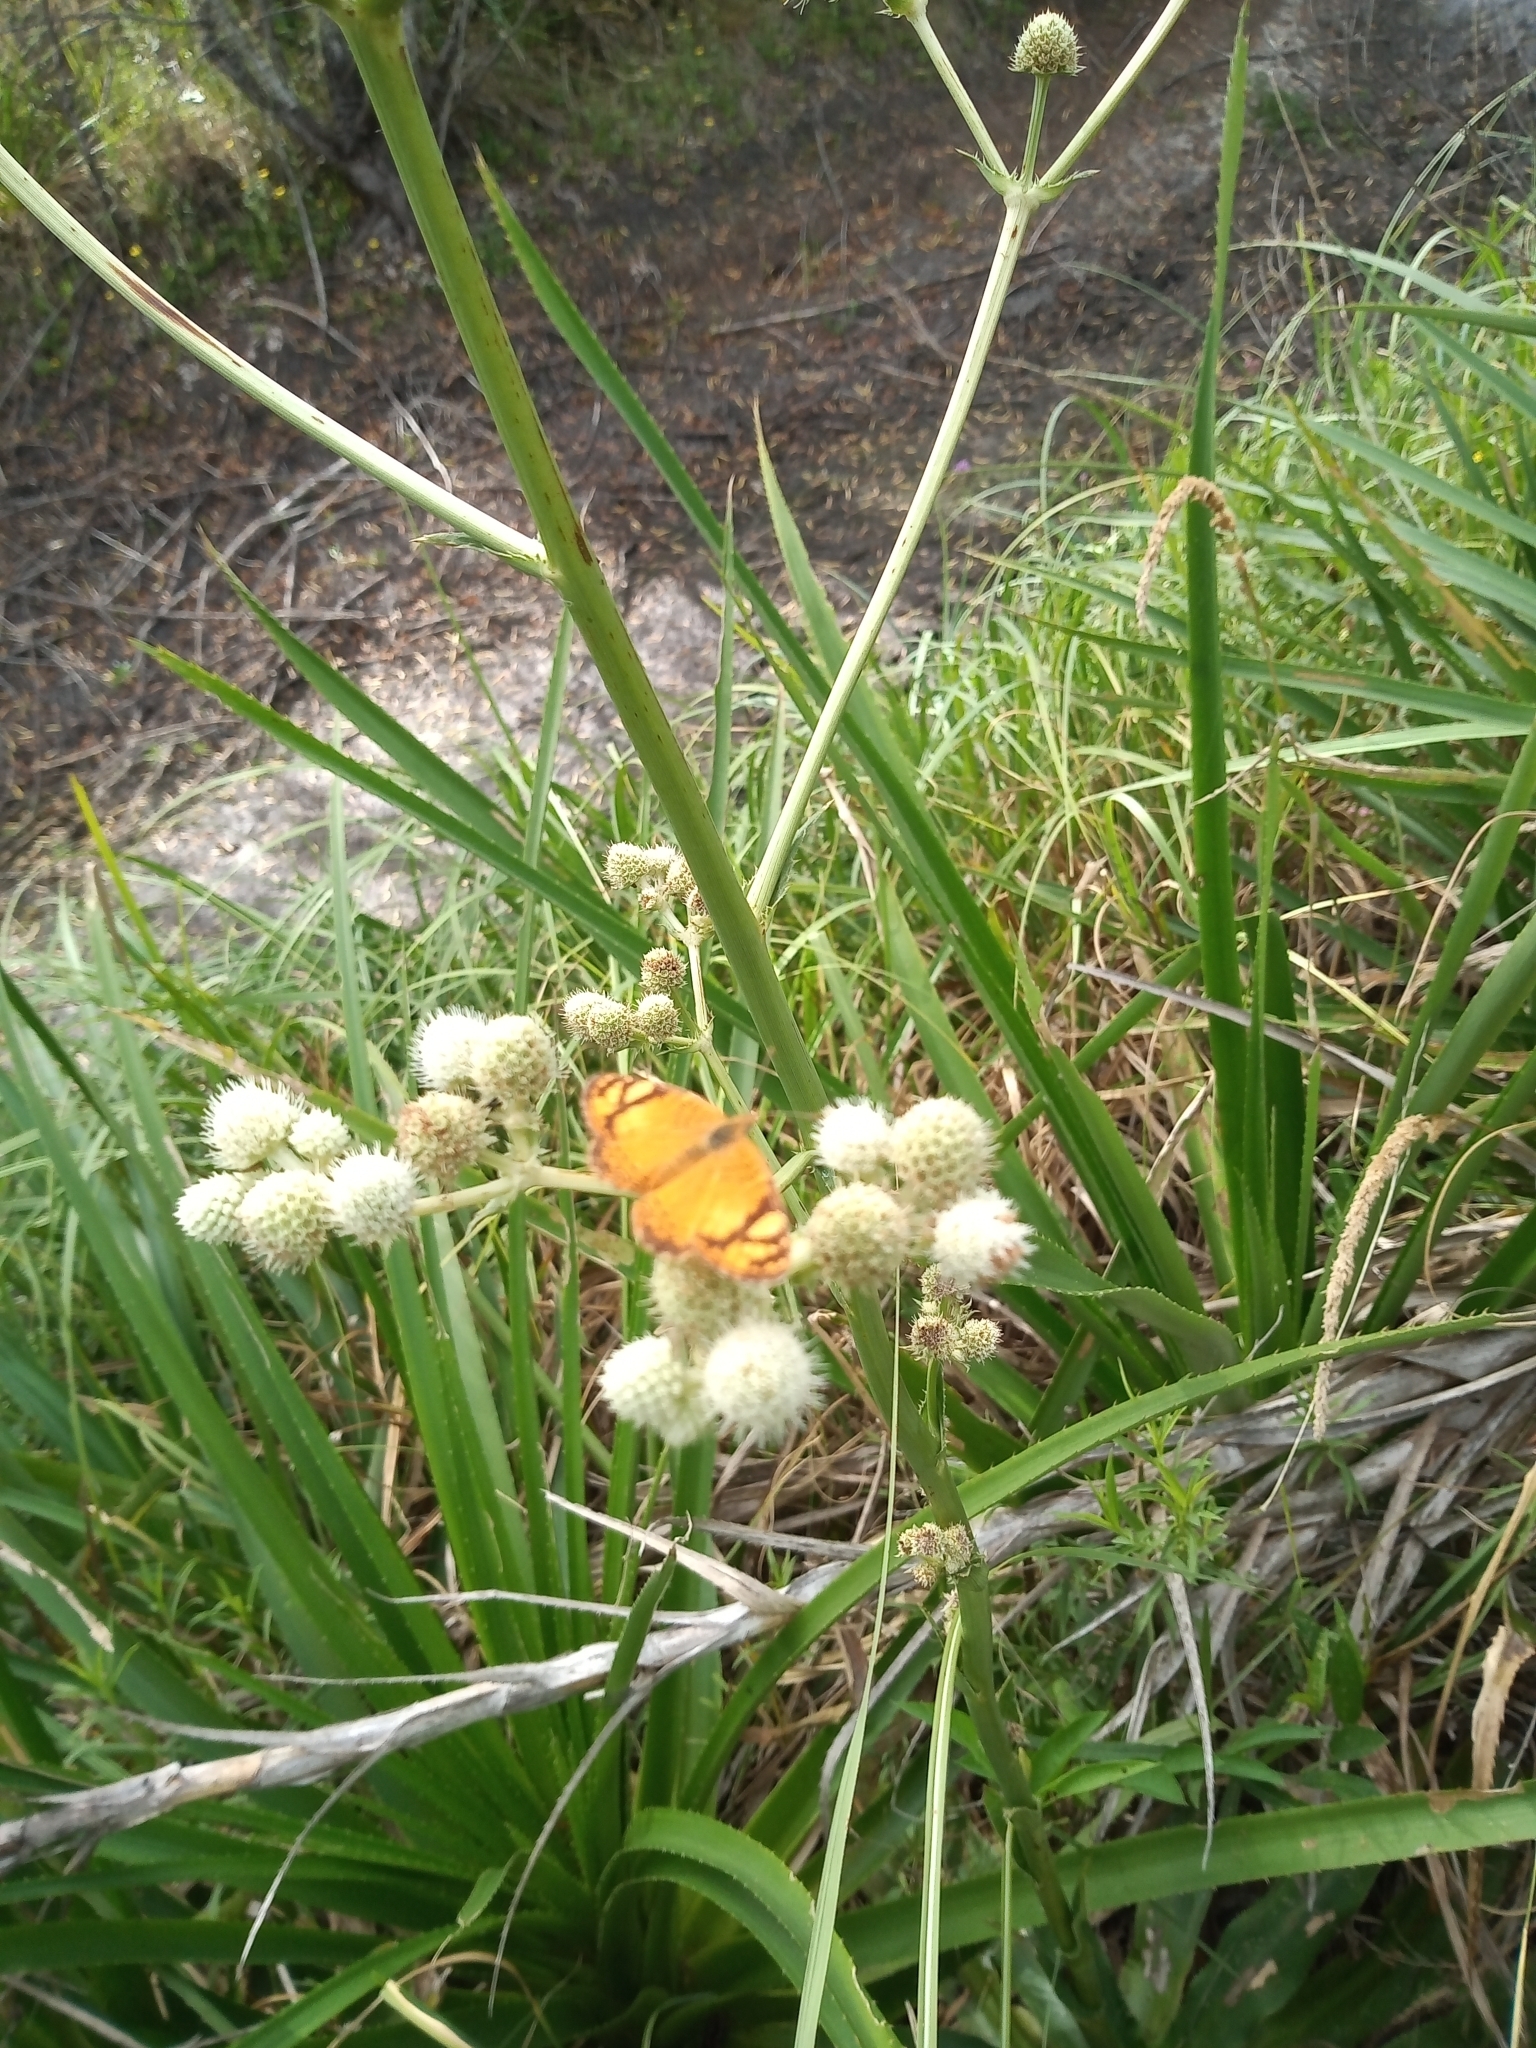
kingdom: Animalia
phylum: Arthropoda
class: Insecta
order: Lepidoptera
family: Nymphalidae
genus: Tegosa
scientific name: Tegosa orobia
